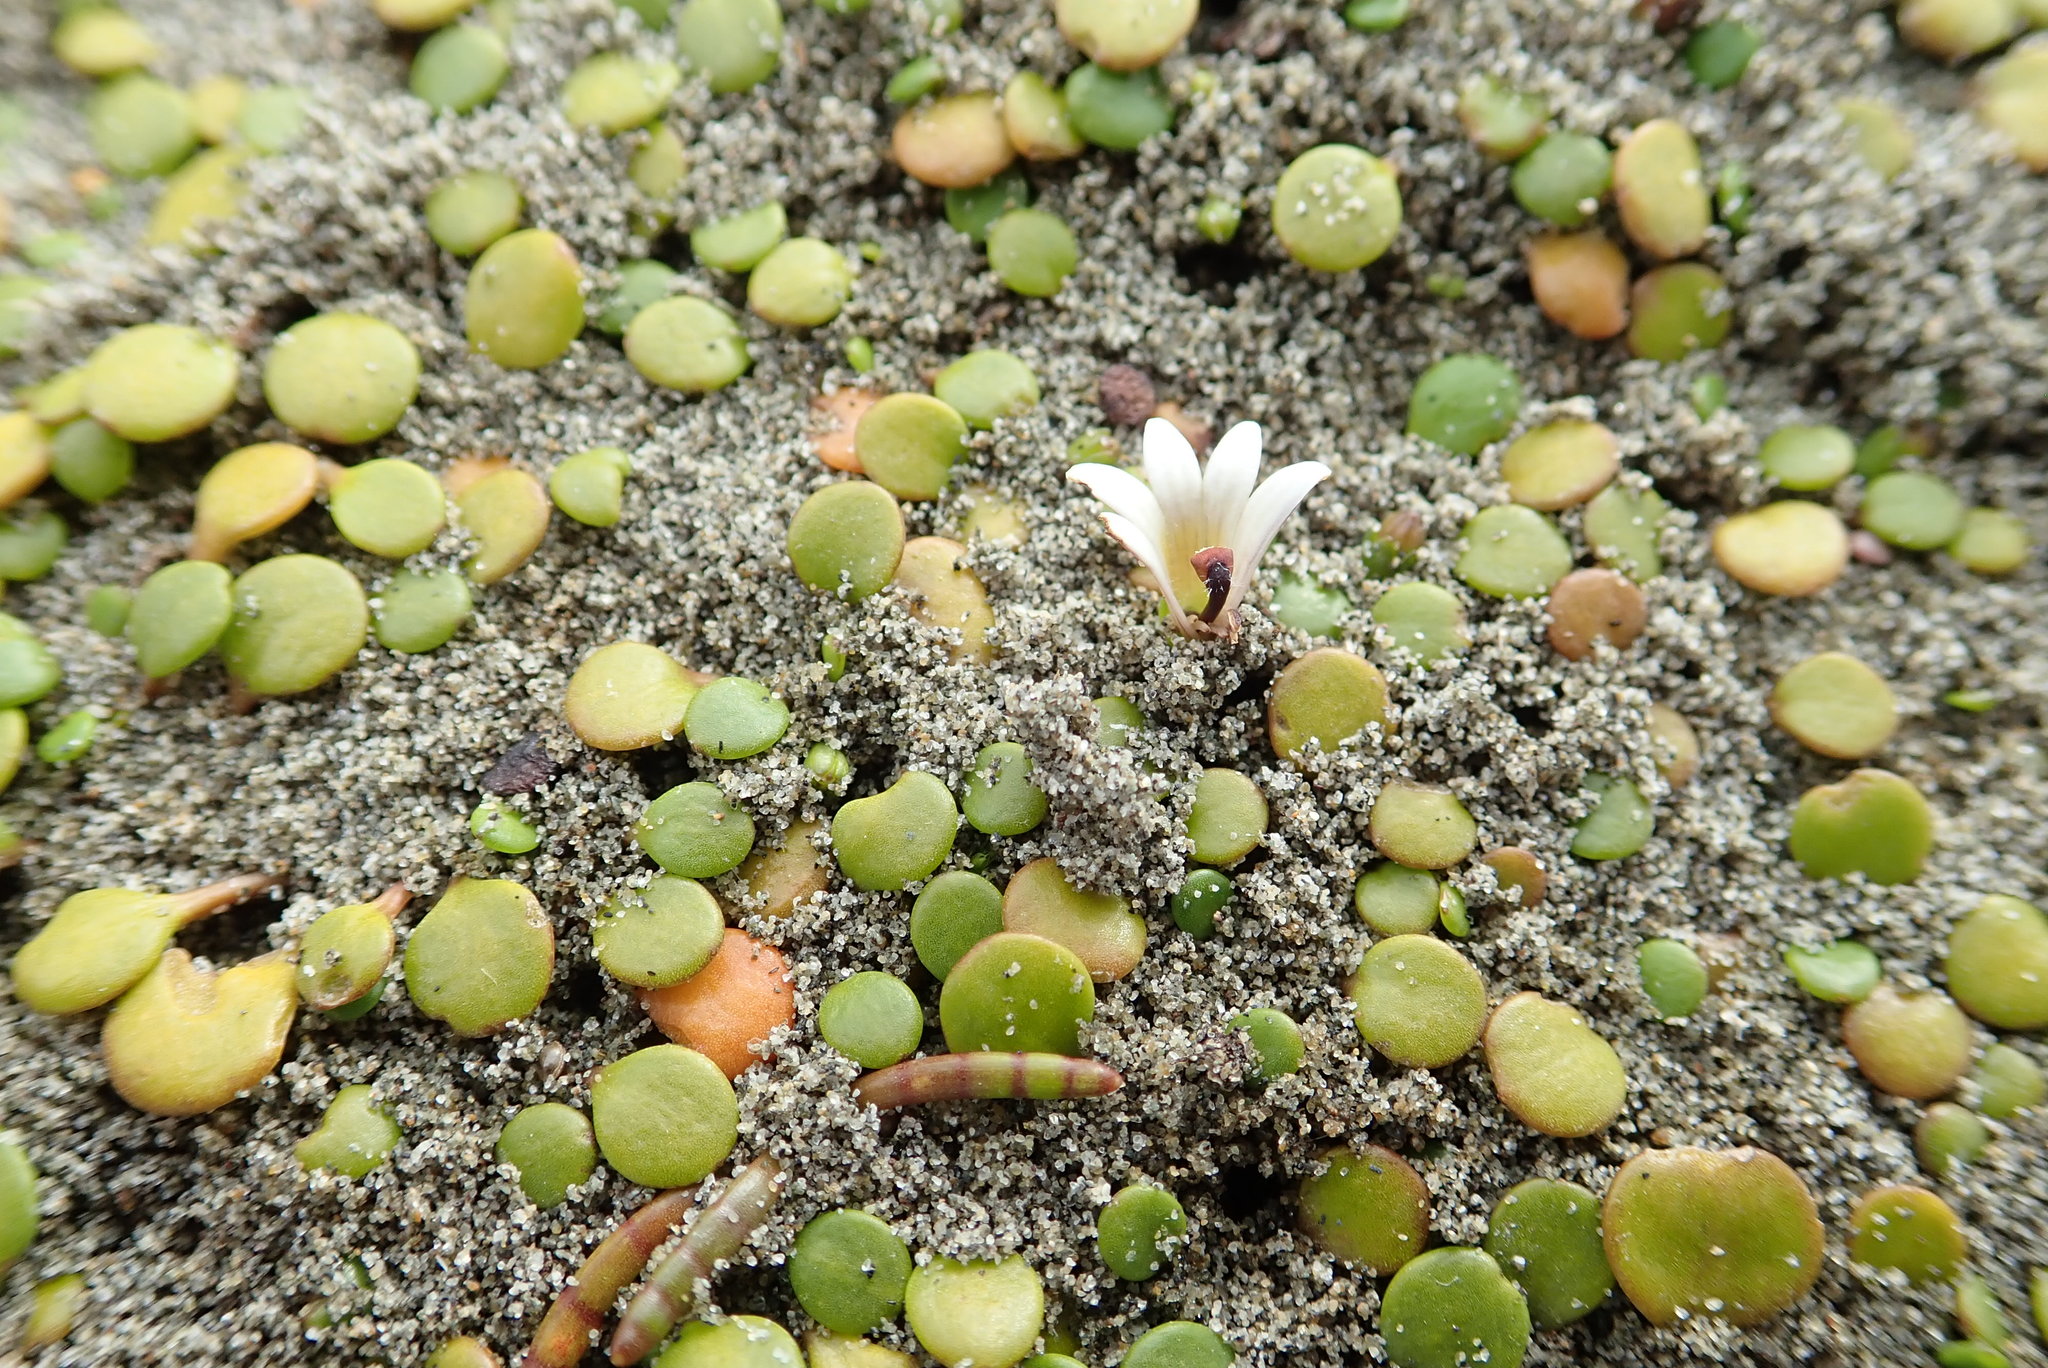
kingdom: Plantae
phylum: Tracheophyta
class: Magnoliopsida
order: Asterales
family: Goodeniaceae
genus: Goodenia
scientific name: Goodenia heenanii
